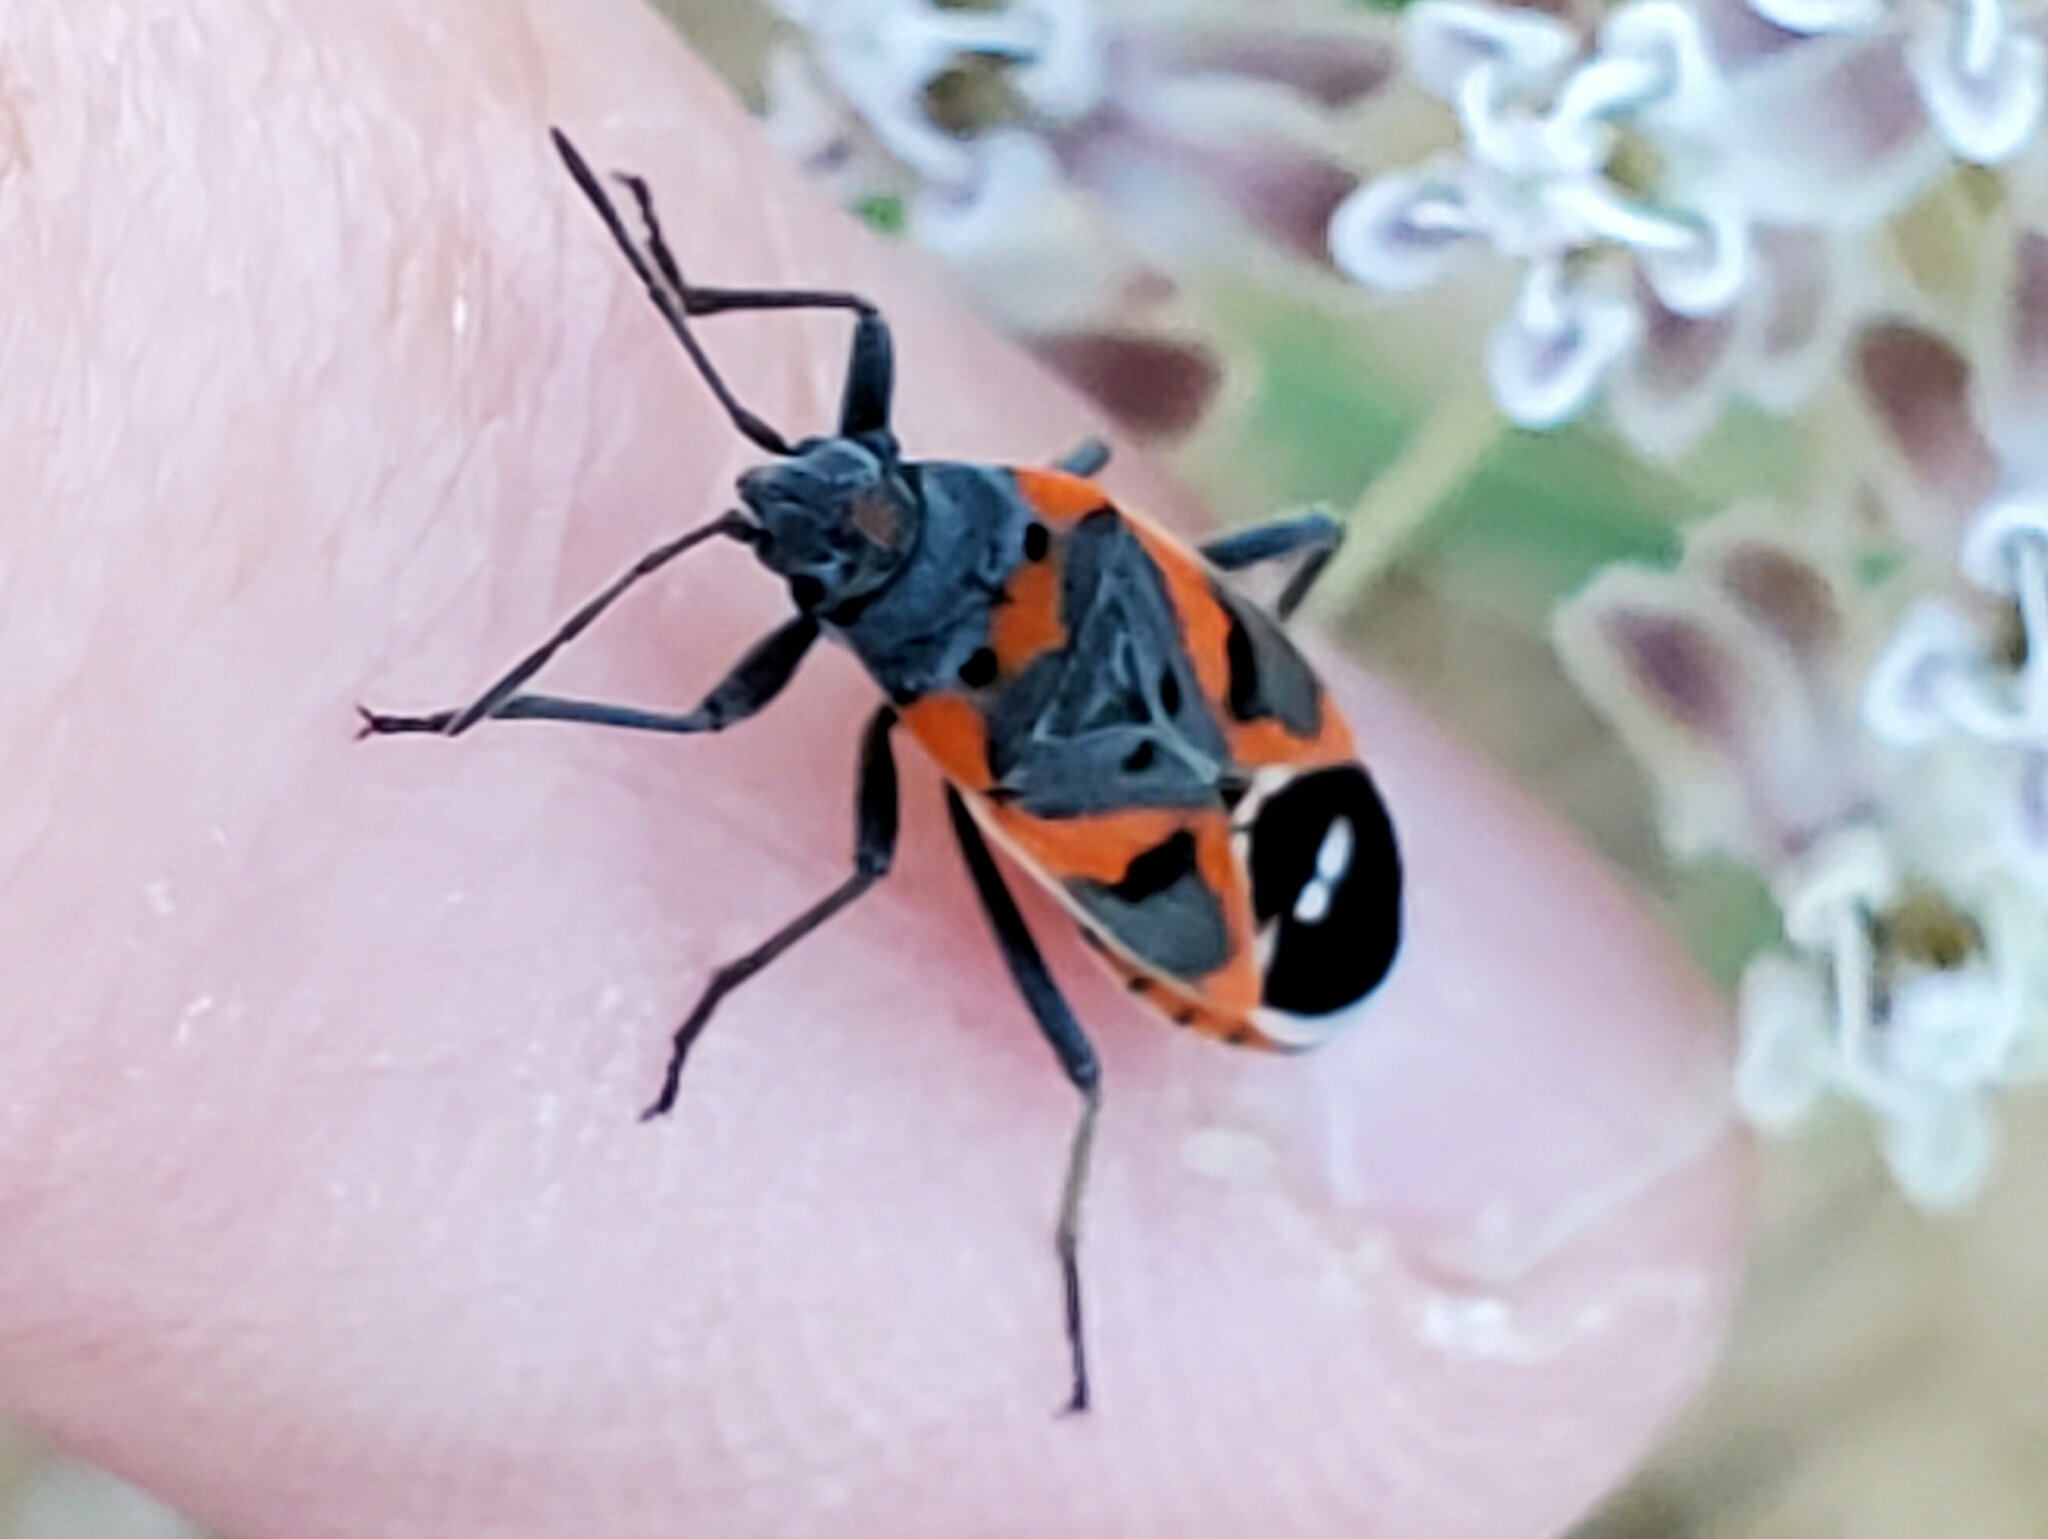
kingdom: Animalia
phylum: Arthropoda
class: Insecta
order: Hemiptera
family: Lygaeidae
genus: Lygaeus
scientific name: Lygaeus kalmii
